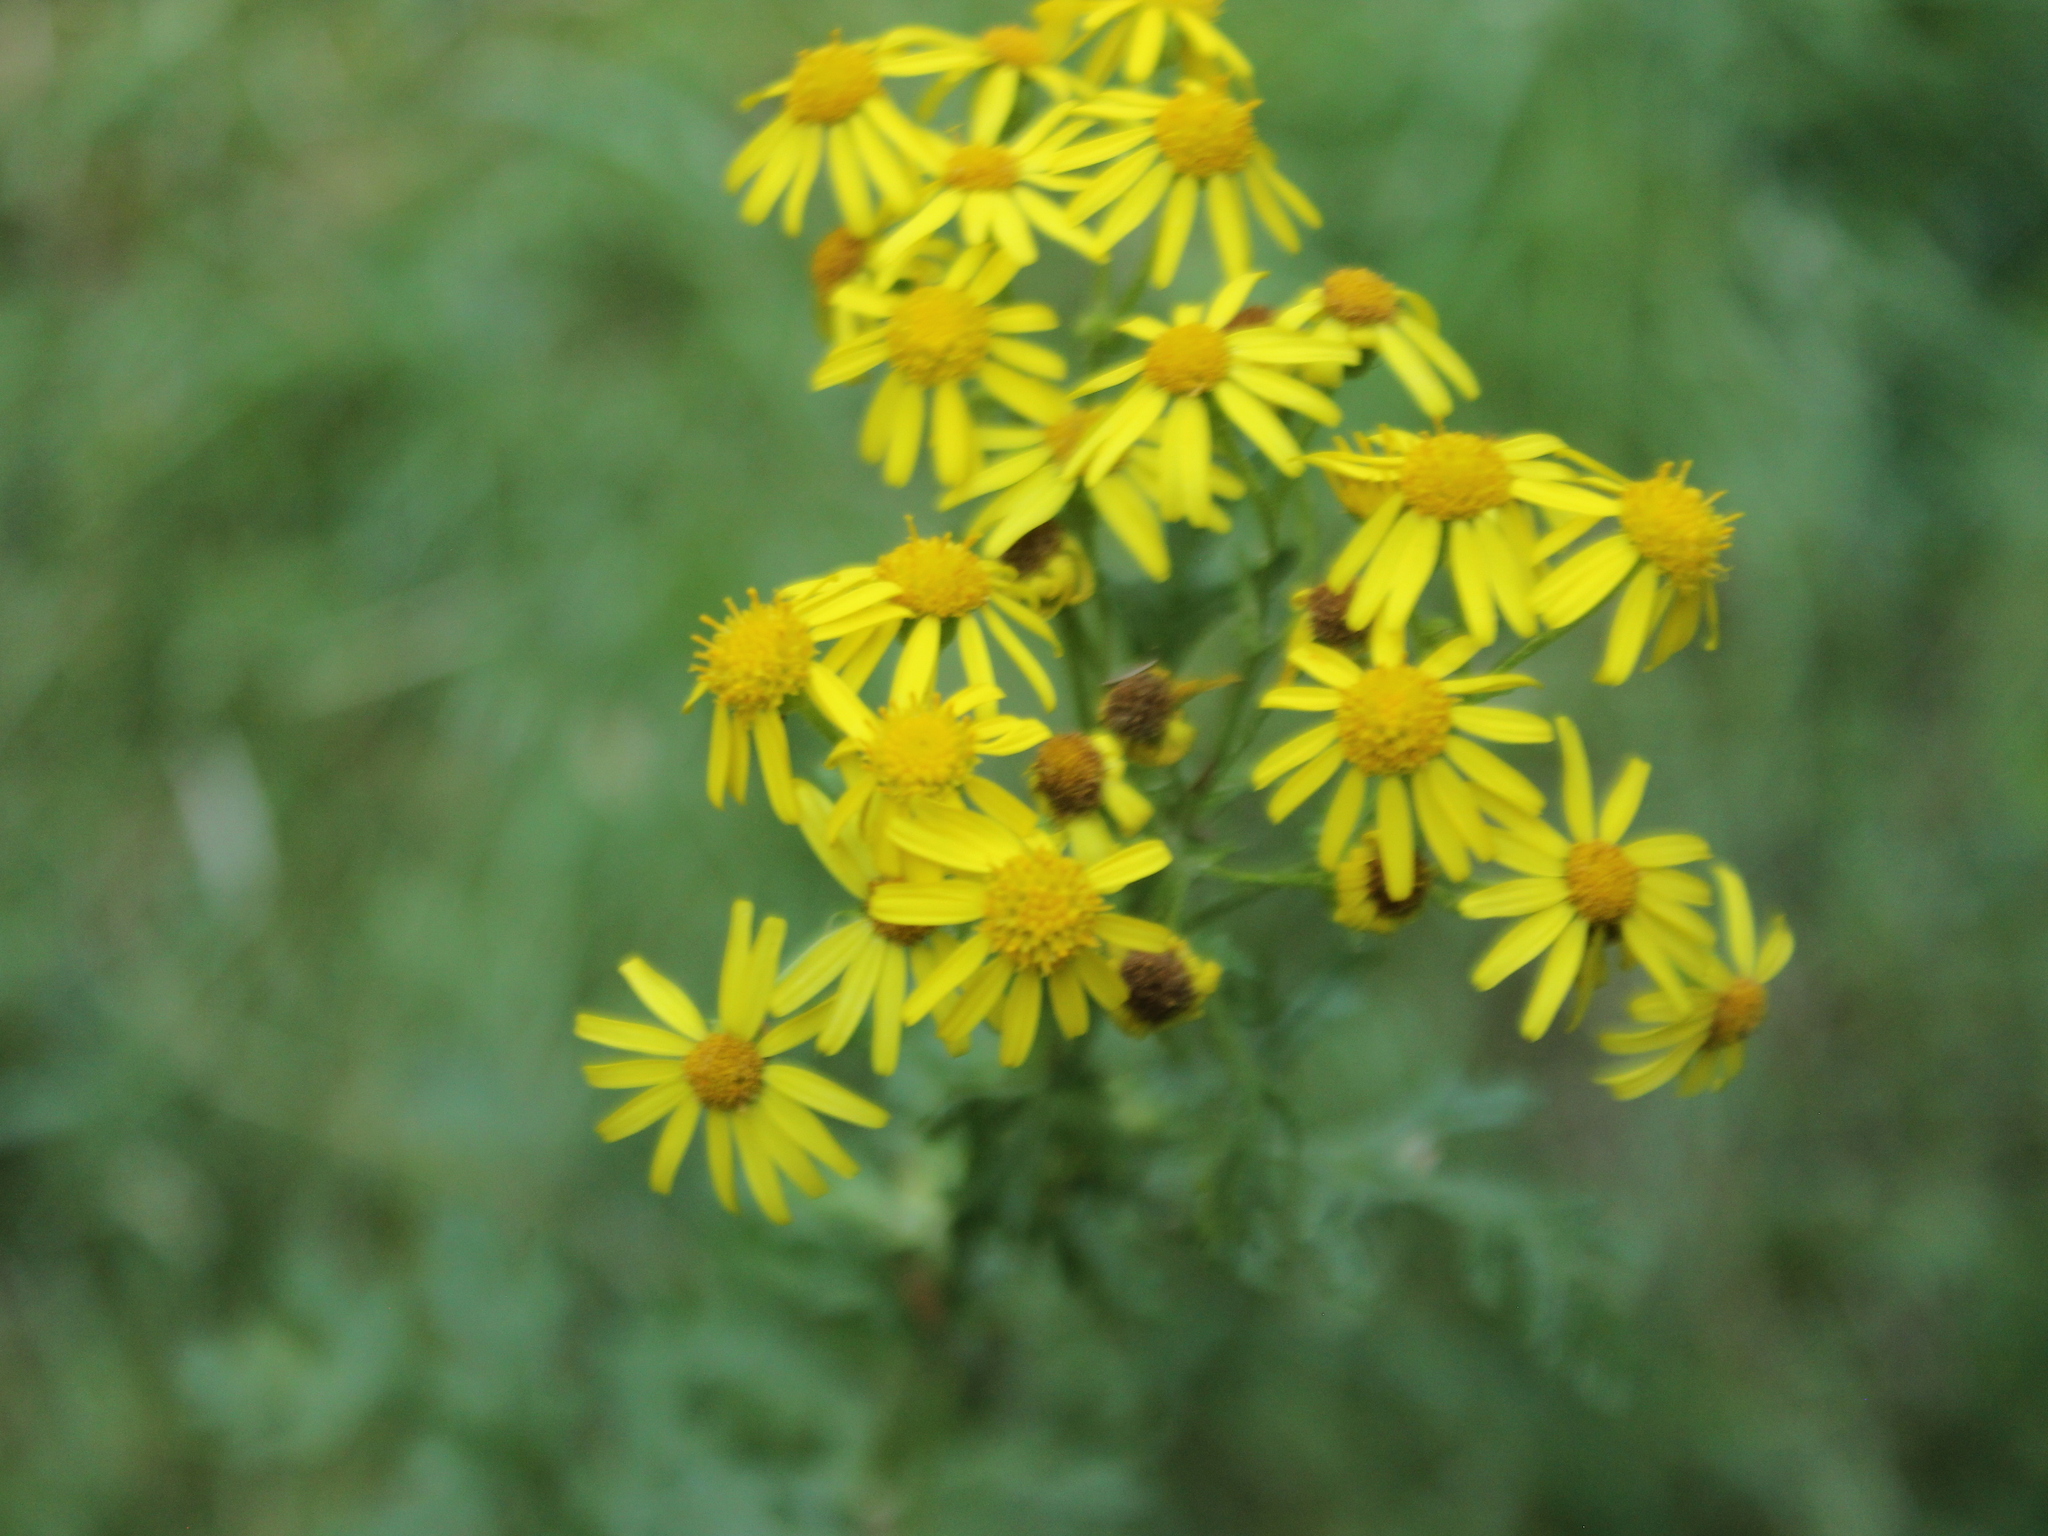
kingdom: Plantae
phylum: Tracheophyta
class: Magnoliopsida
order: Asterales
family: Asteraceae
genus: Jacobaea
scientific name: Jacobaea vulgaris
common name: Stinking willie
